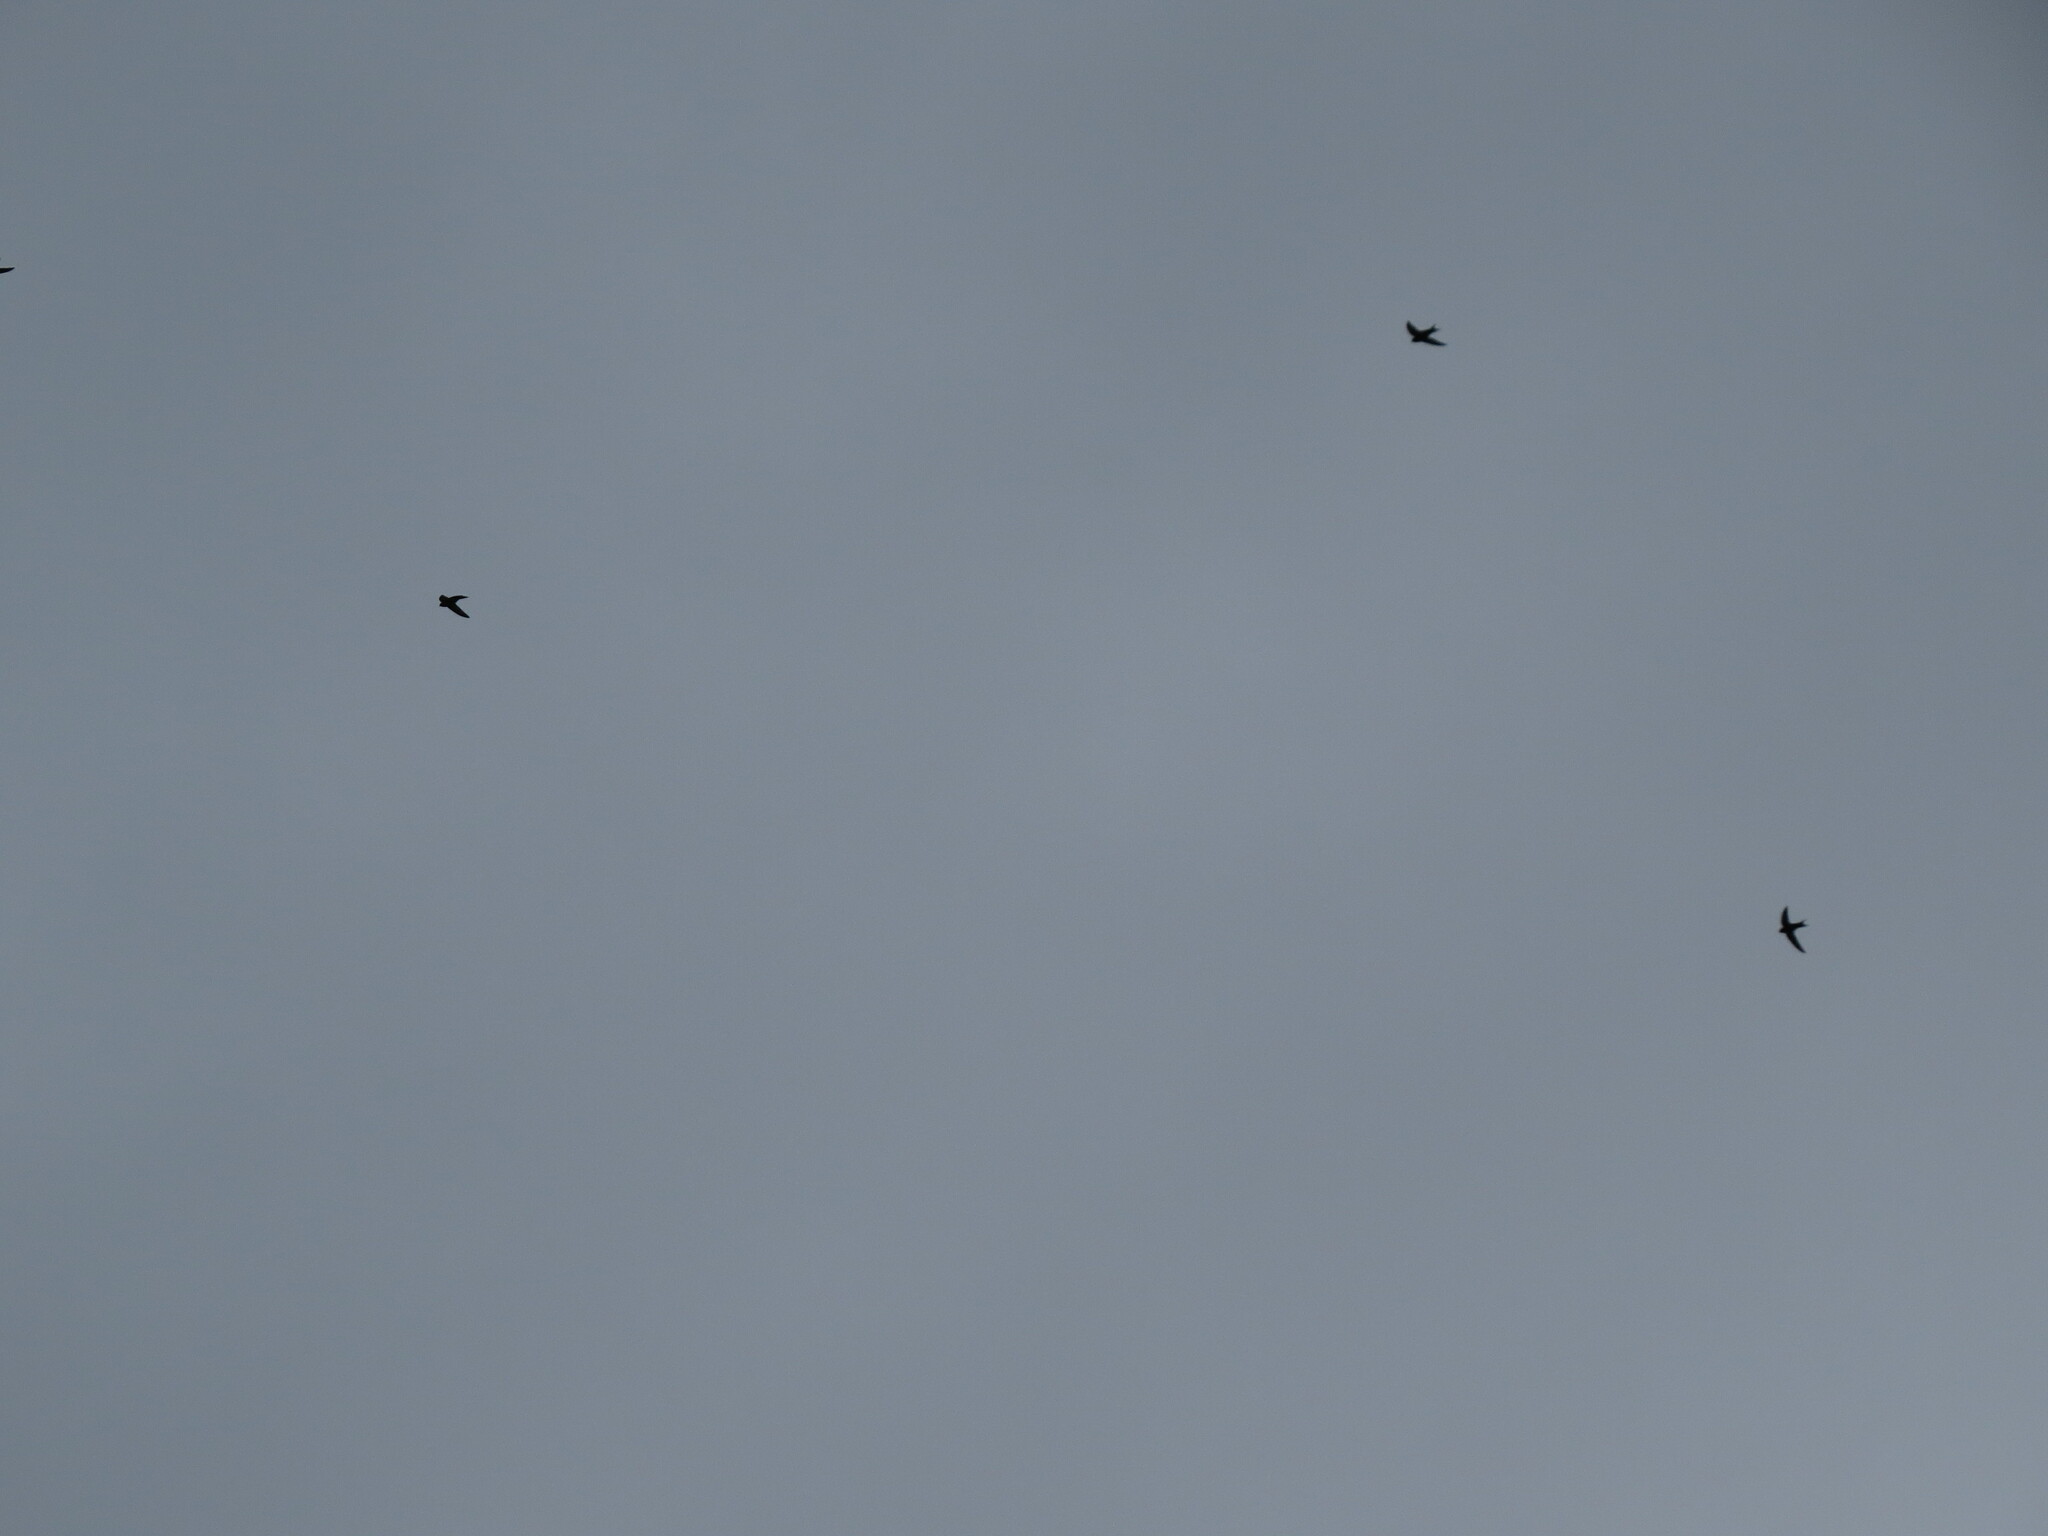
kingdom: Animalia
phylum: Chordata
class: Aves
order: Apodiformes
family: Apodidae
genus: Apus
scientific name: Apus apus
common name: Common swift
